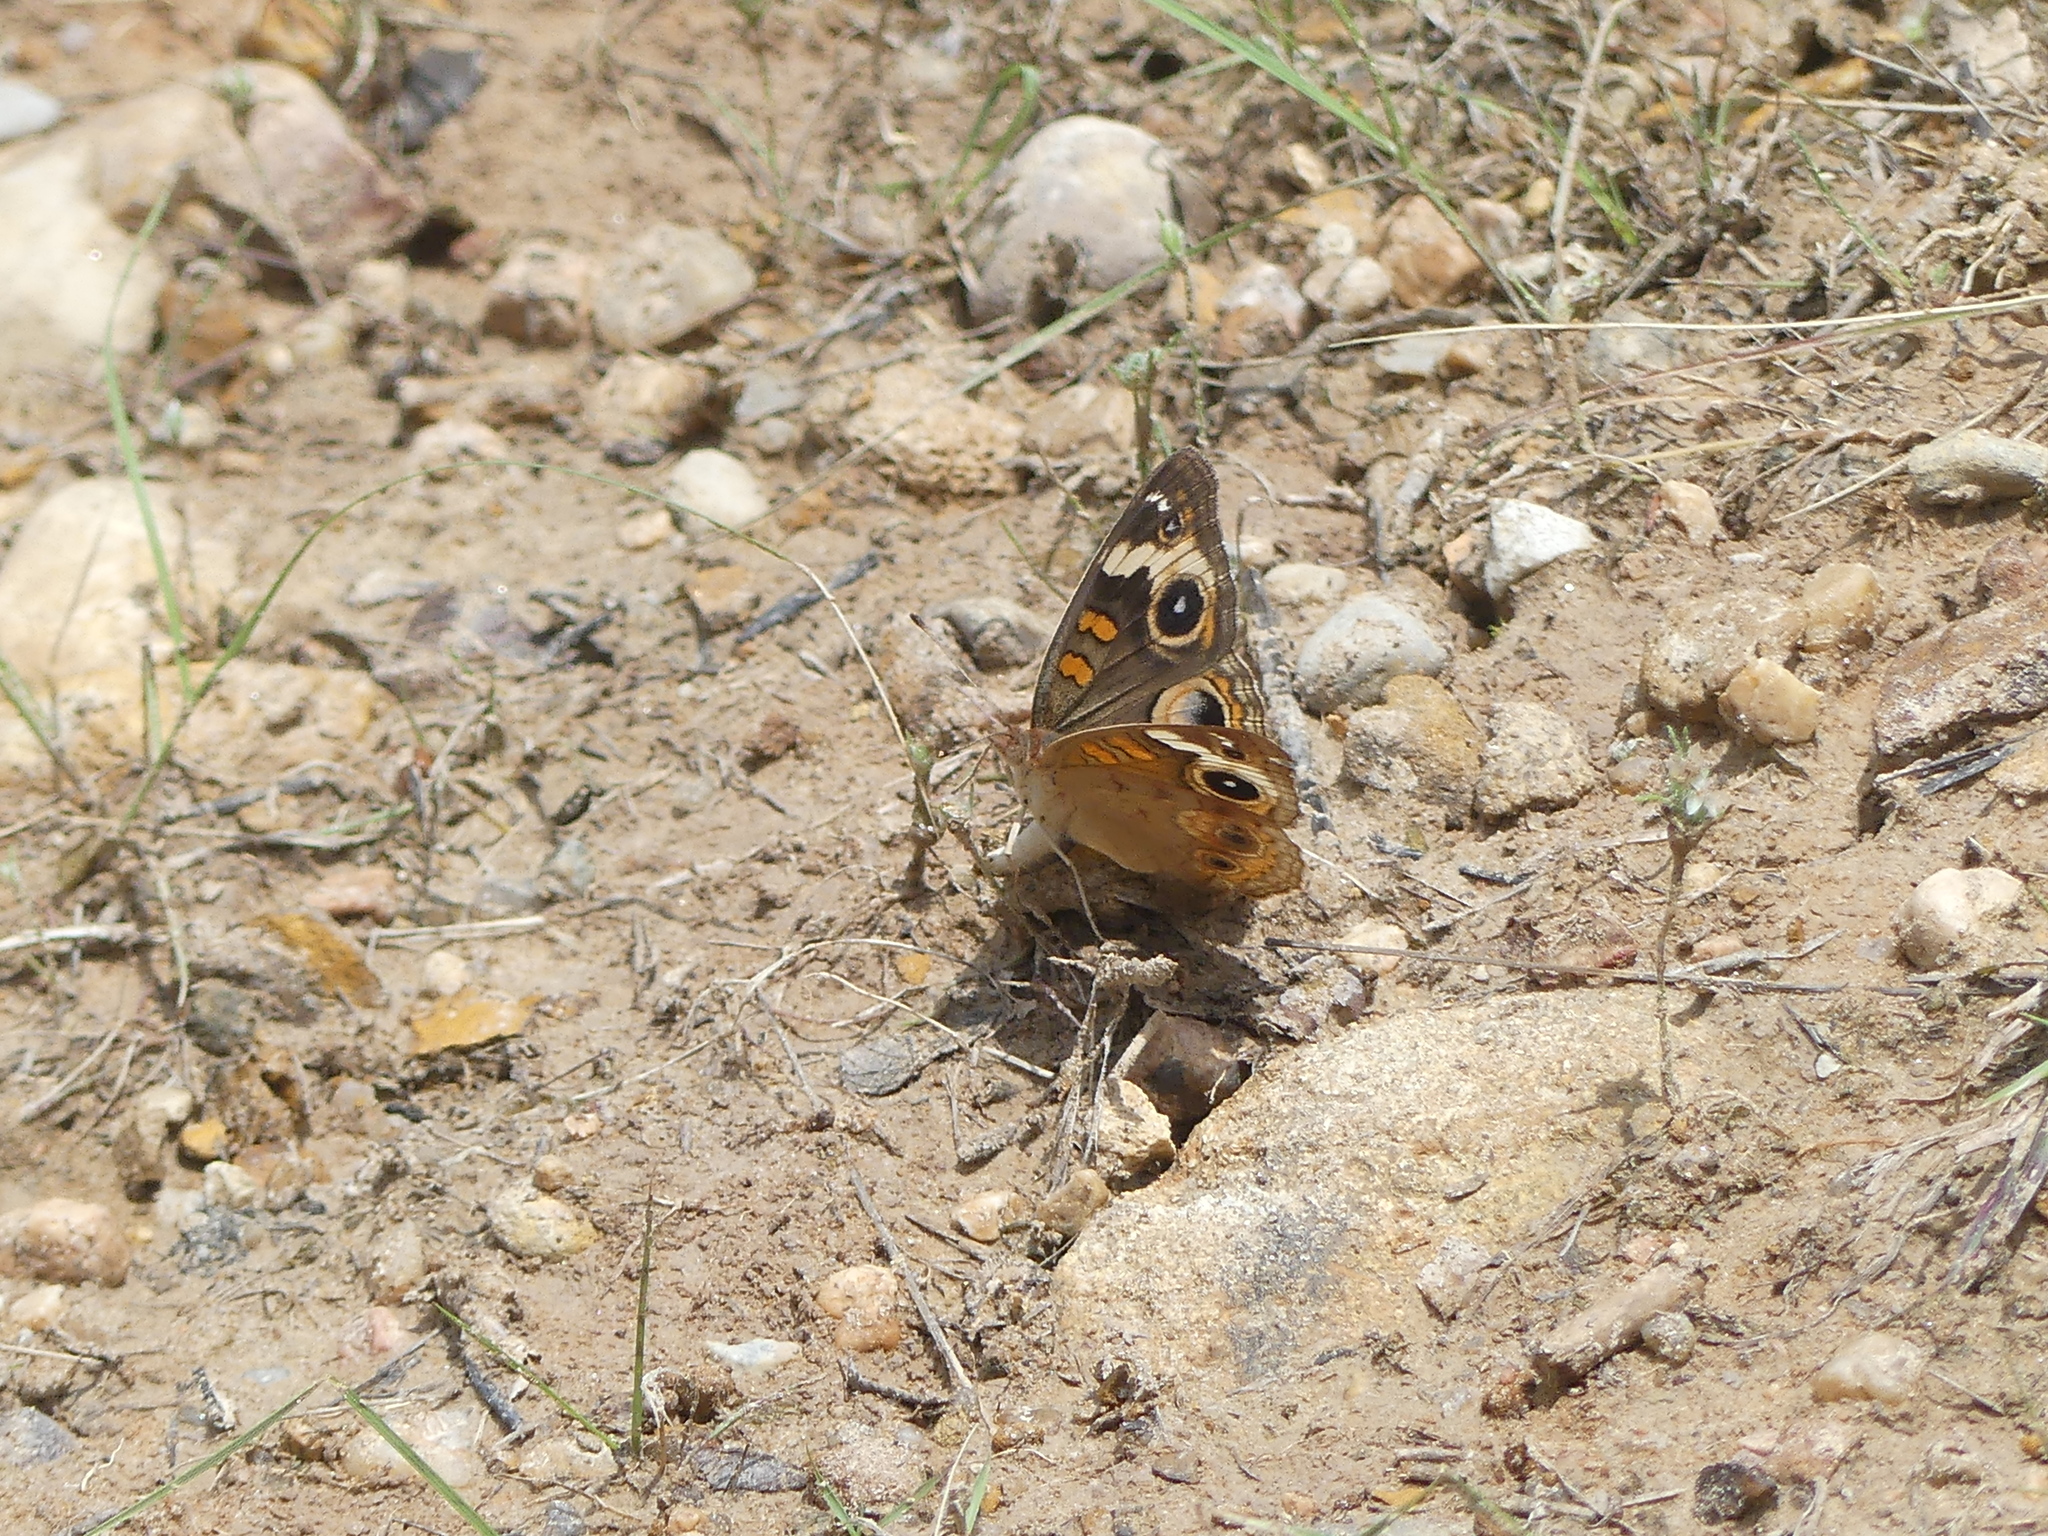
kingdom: Animalia
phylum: Arthropoda
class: Insecta
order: Lepidoptera
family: Nymphalidae
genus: Junonia
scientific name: Junonia coenia
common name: Common buckeye
